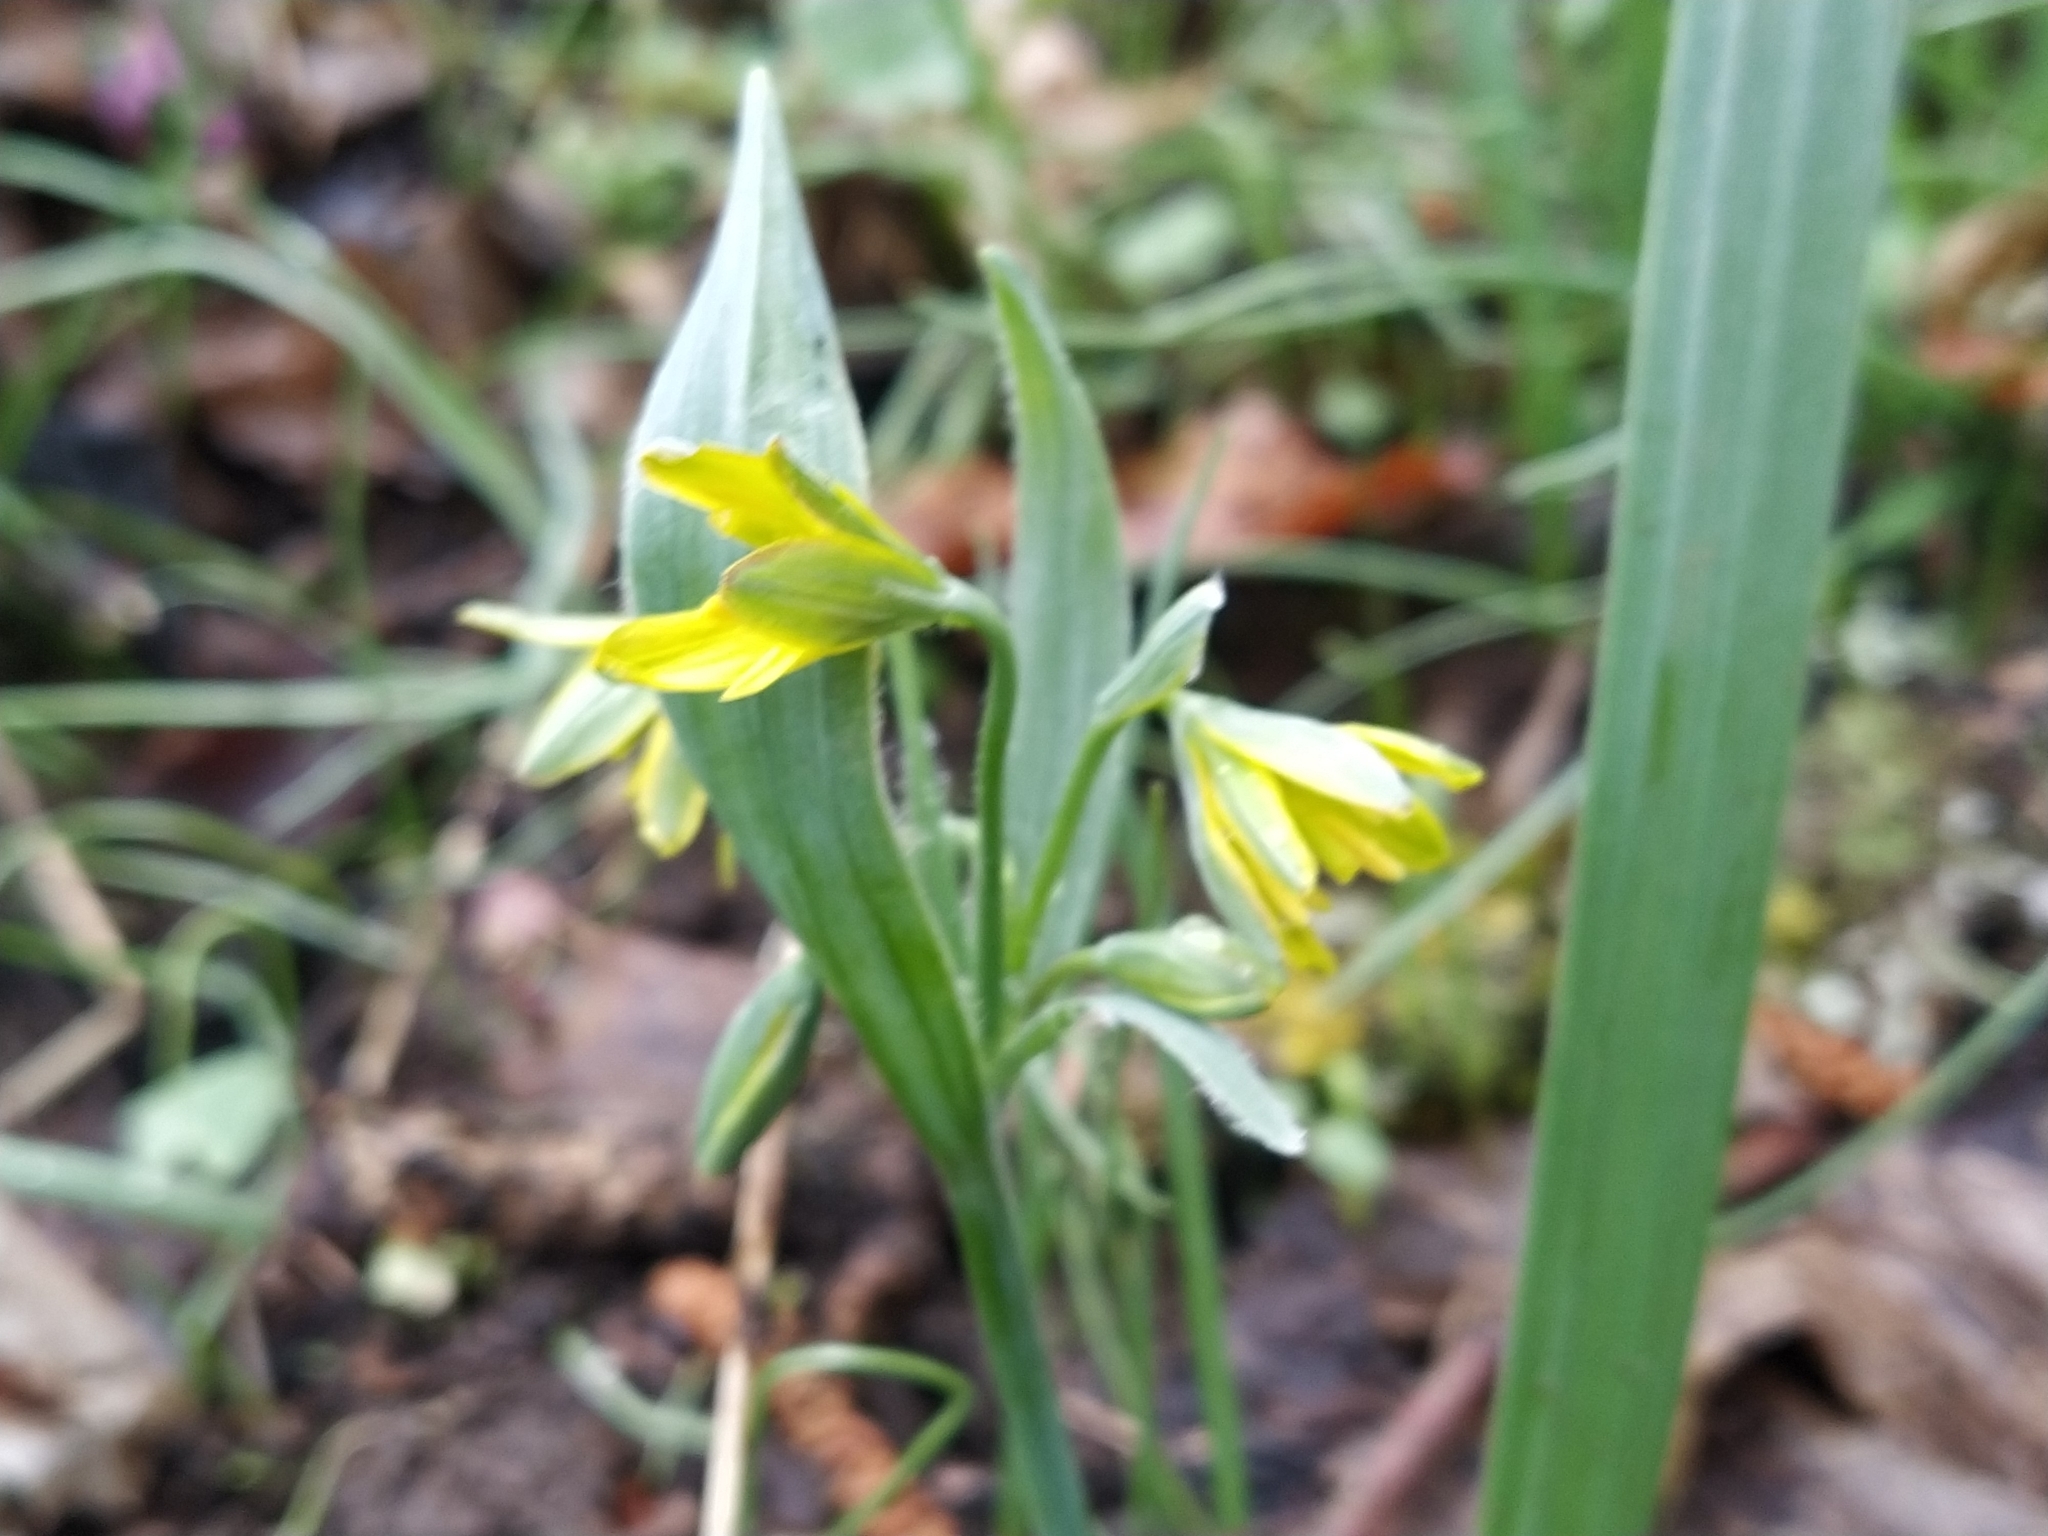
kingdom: Plantae
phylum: Tracheophyta
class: Liliopsida
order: Liliales
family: Liliaceae
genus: Gagea
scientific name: Gagea lutea
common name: Yellow star-of-bethlehem
